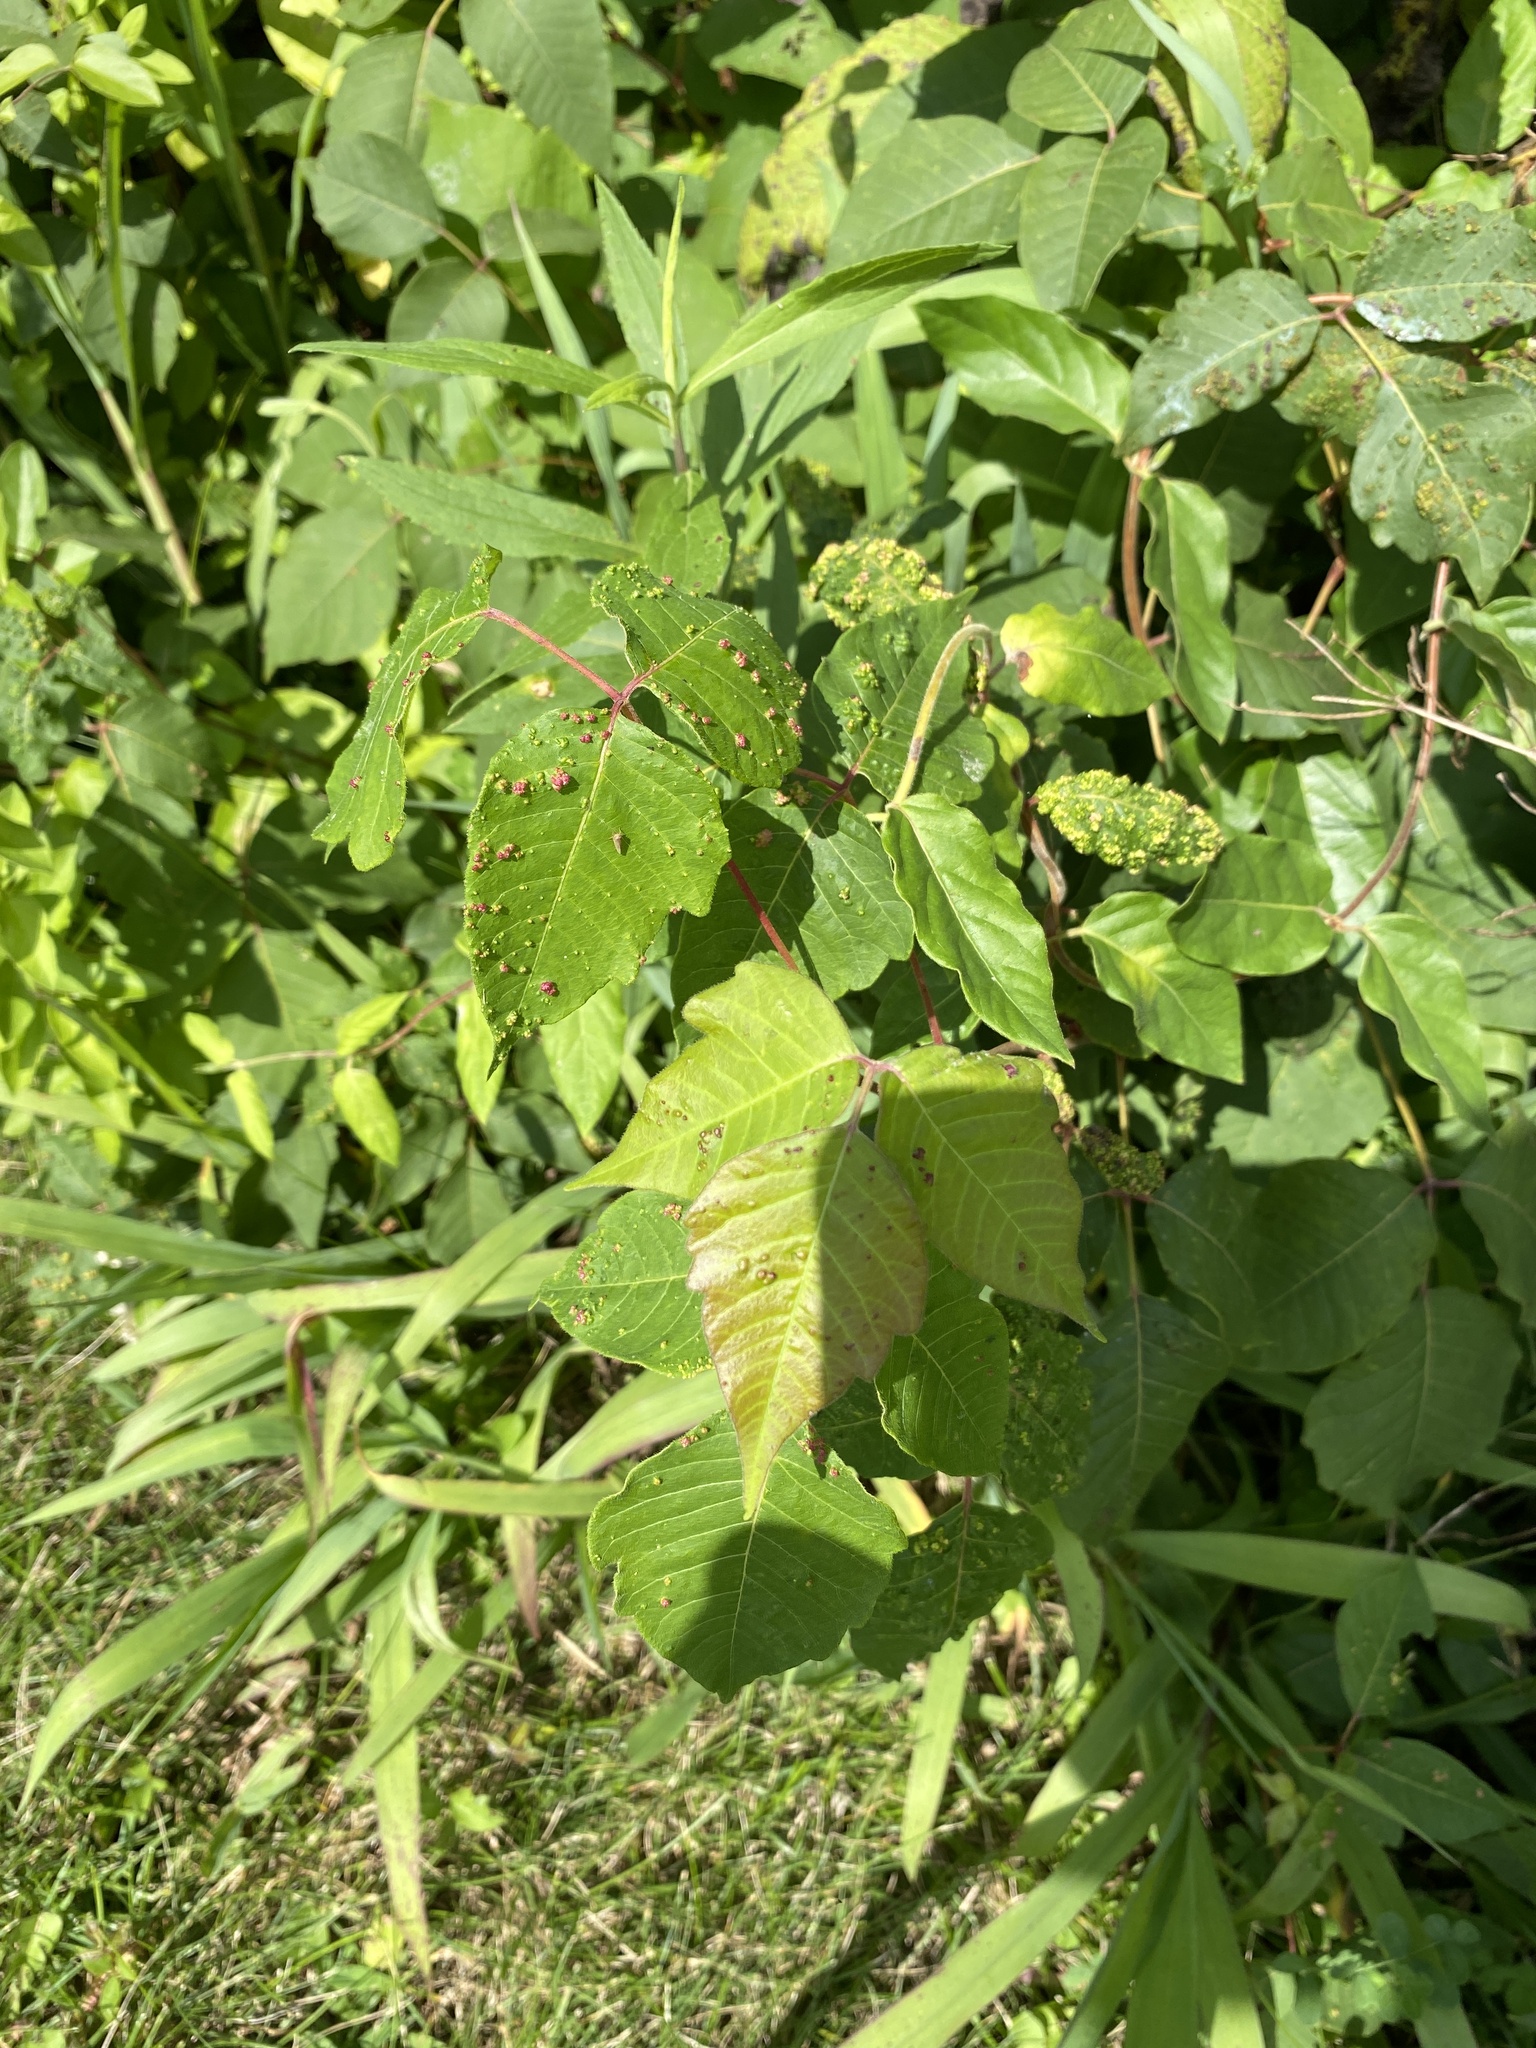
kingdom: Animalia
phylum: Arthropoda
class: Arachnida
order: Trombidiformes
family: Eriophyidae
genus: Aculops
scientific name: Aculops
